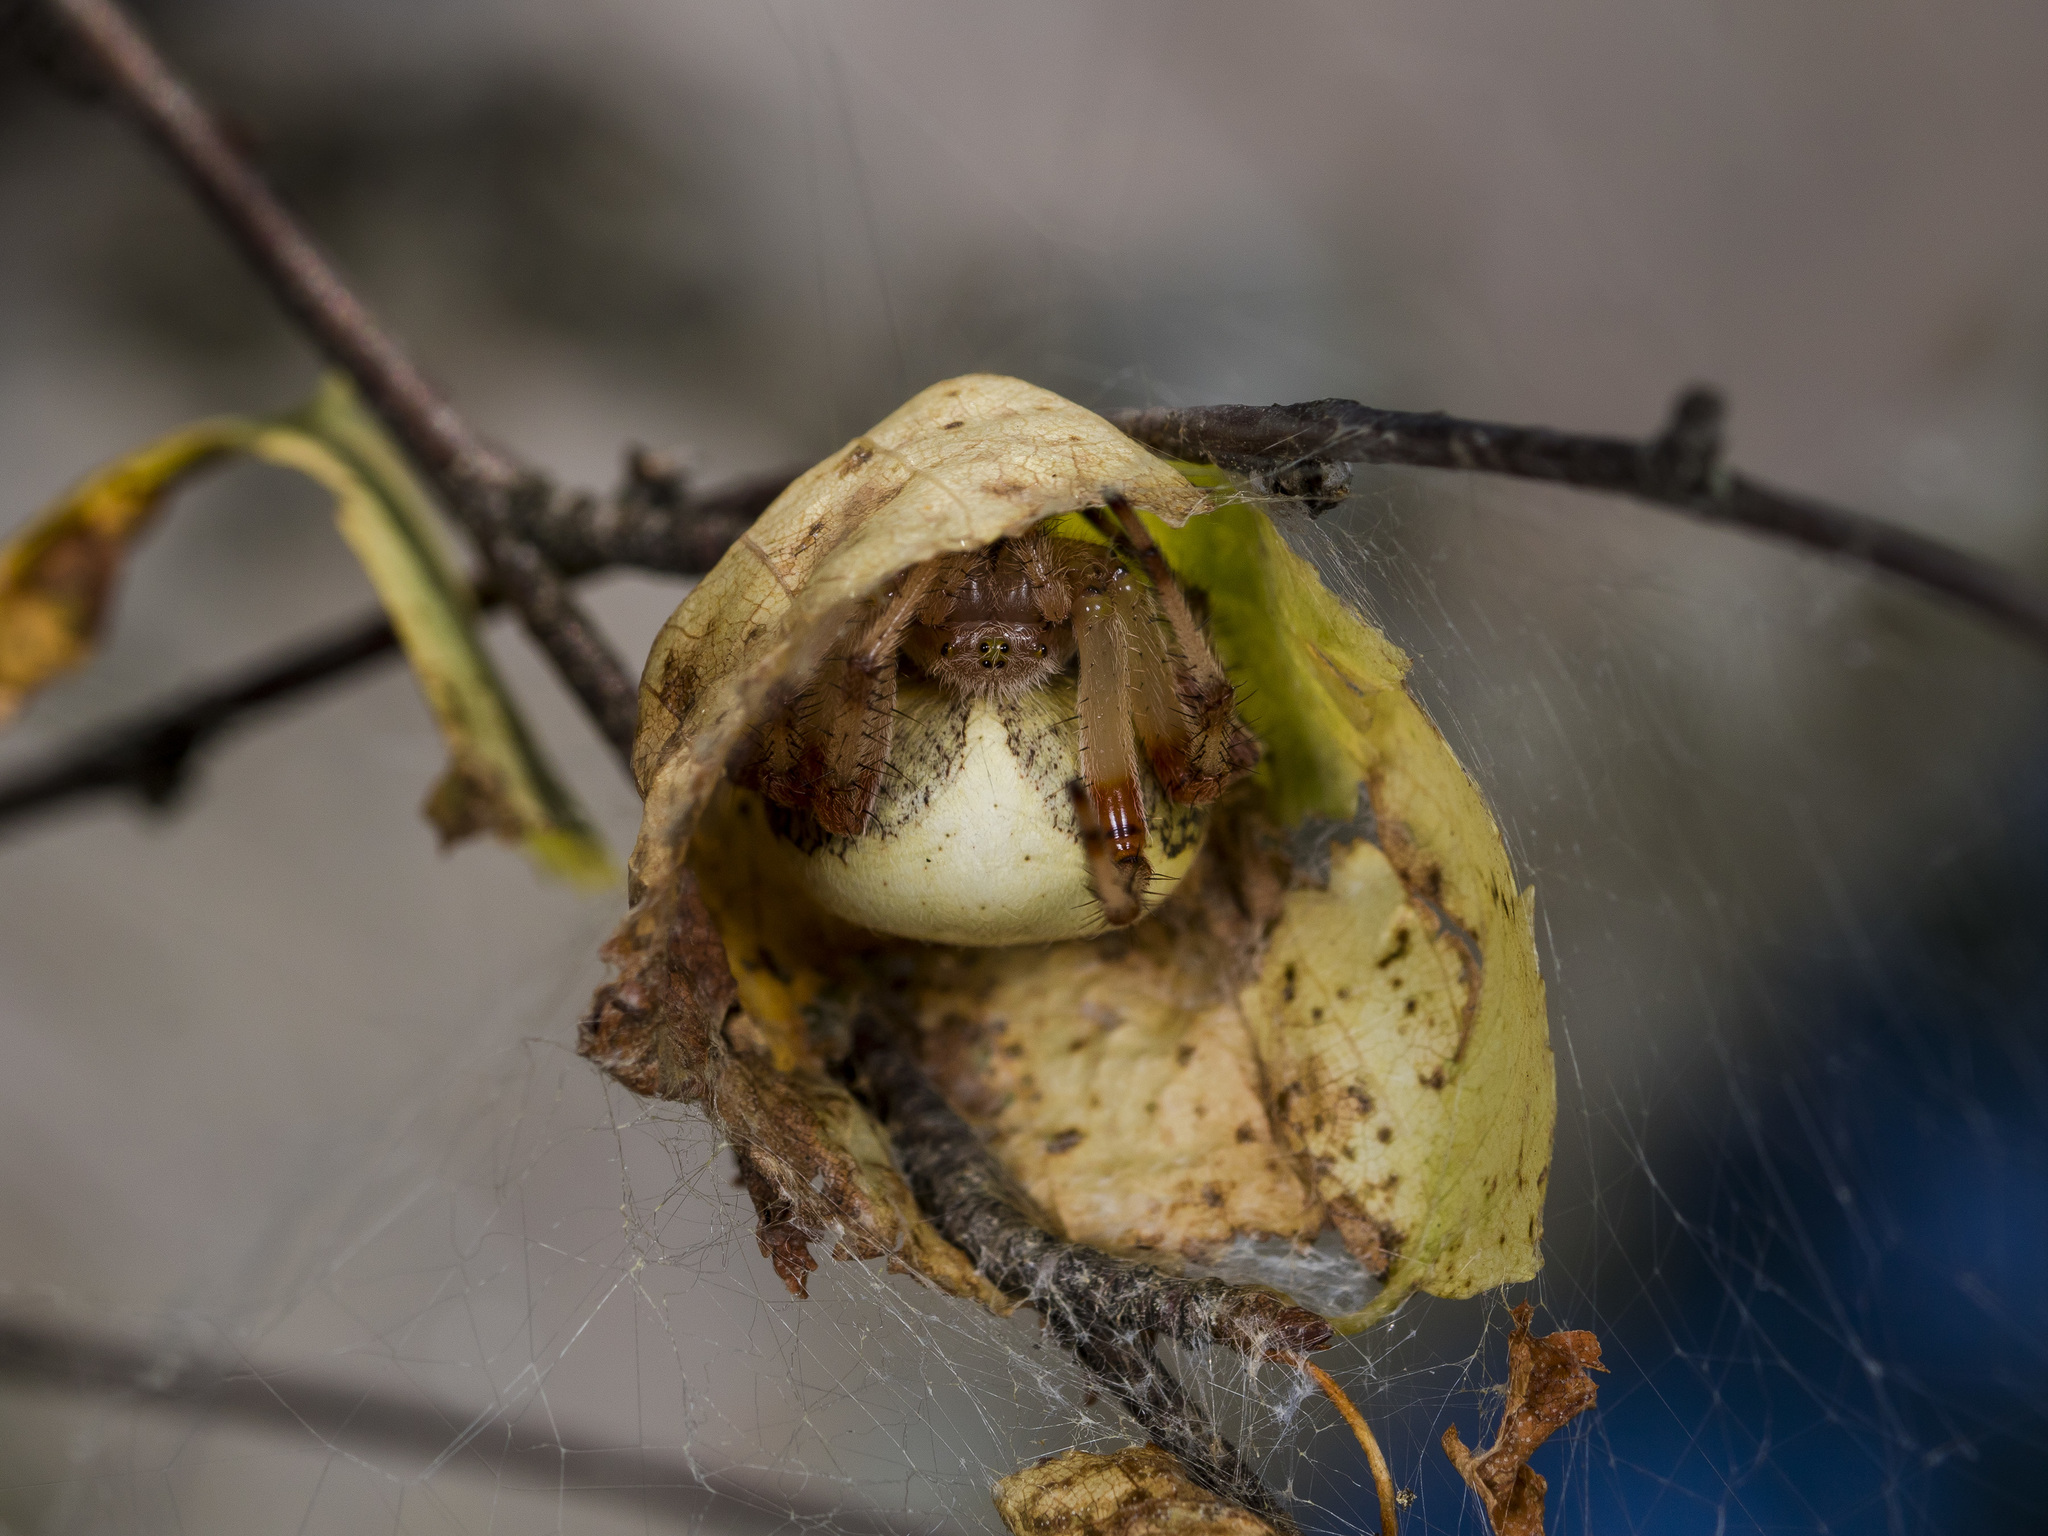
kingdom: Animalia
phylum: Arthropoda
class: Arachnida
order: Araneae
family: Araneidae
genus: Araneus
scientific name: Araneus marmoreus
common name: Marbled orbweaver
